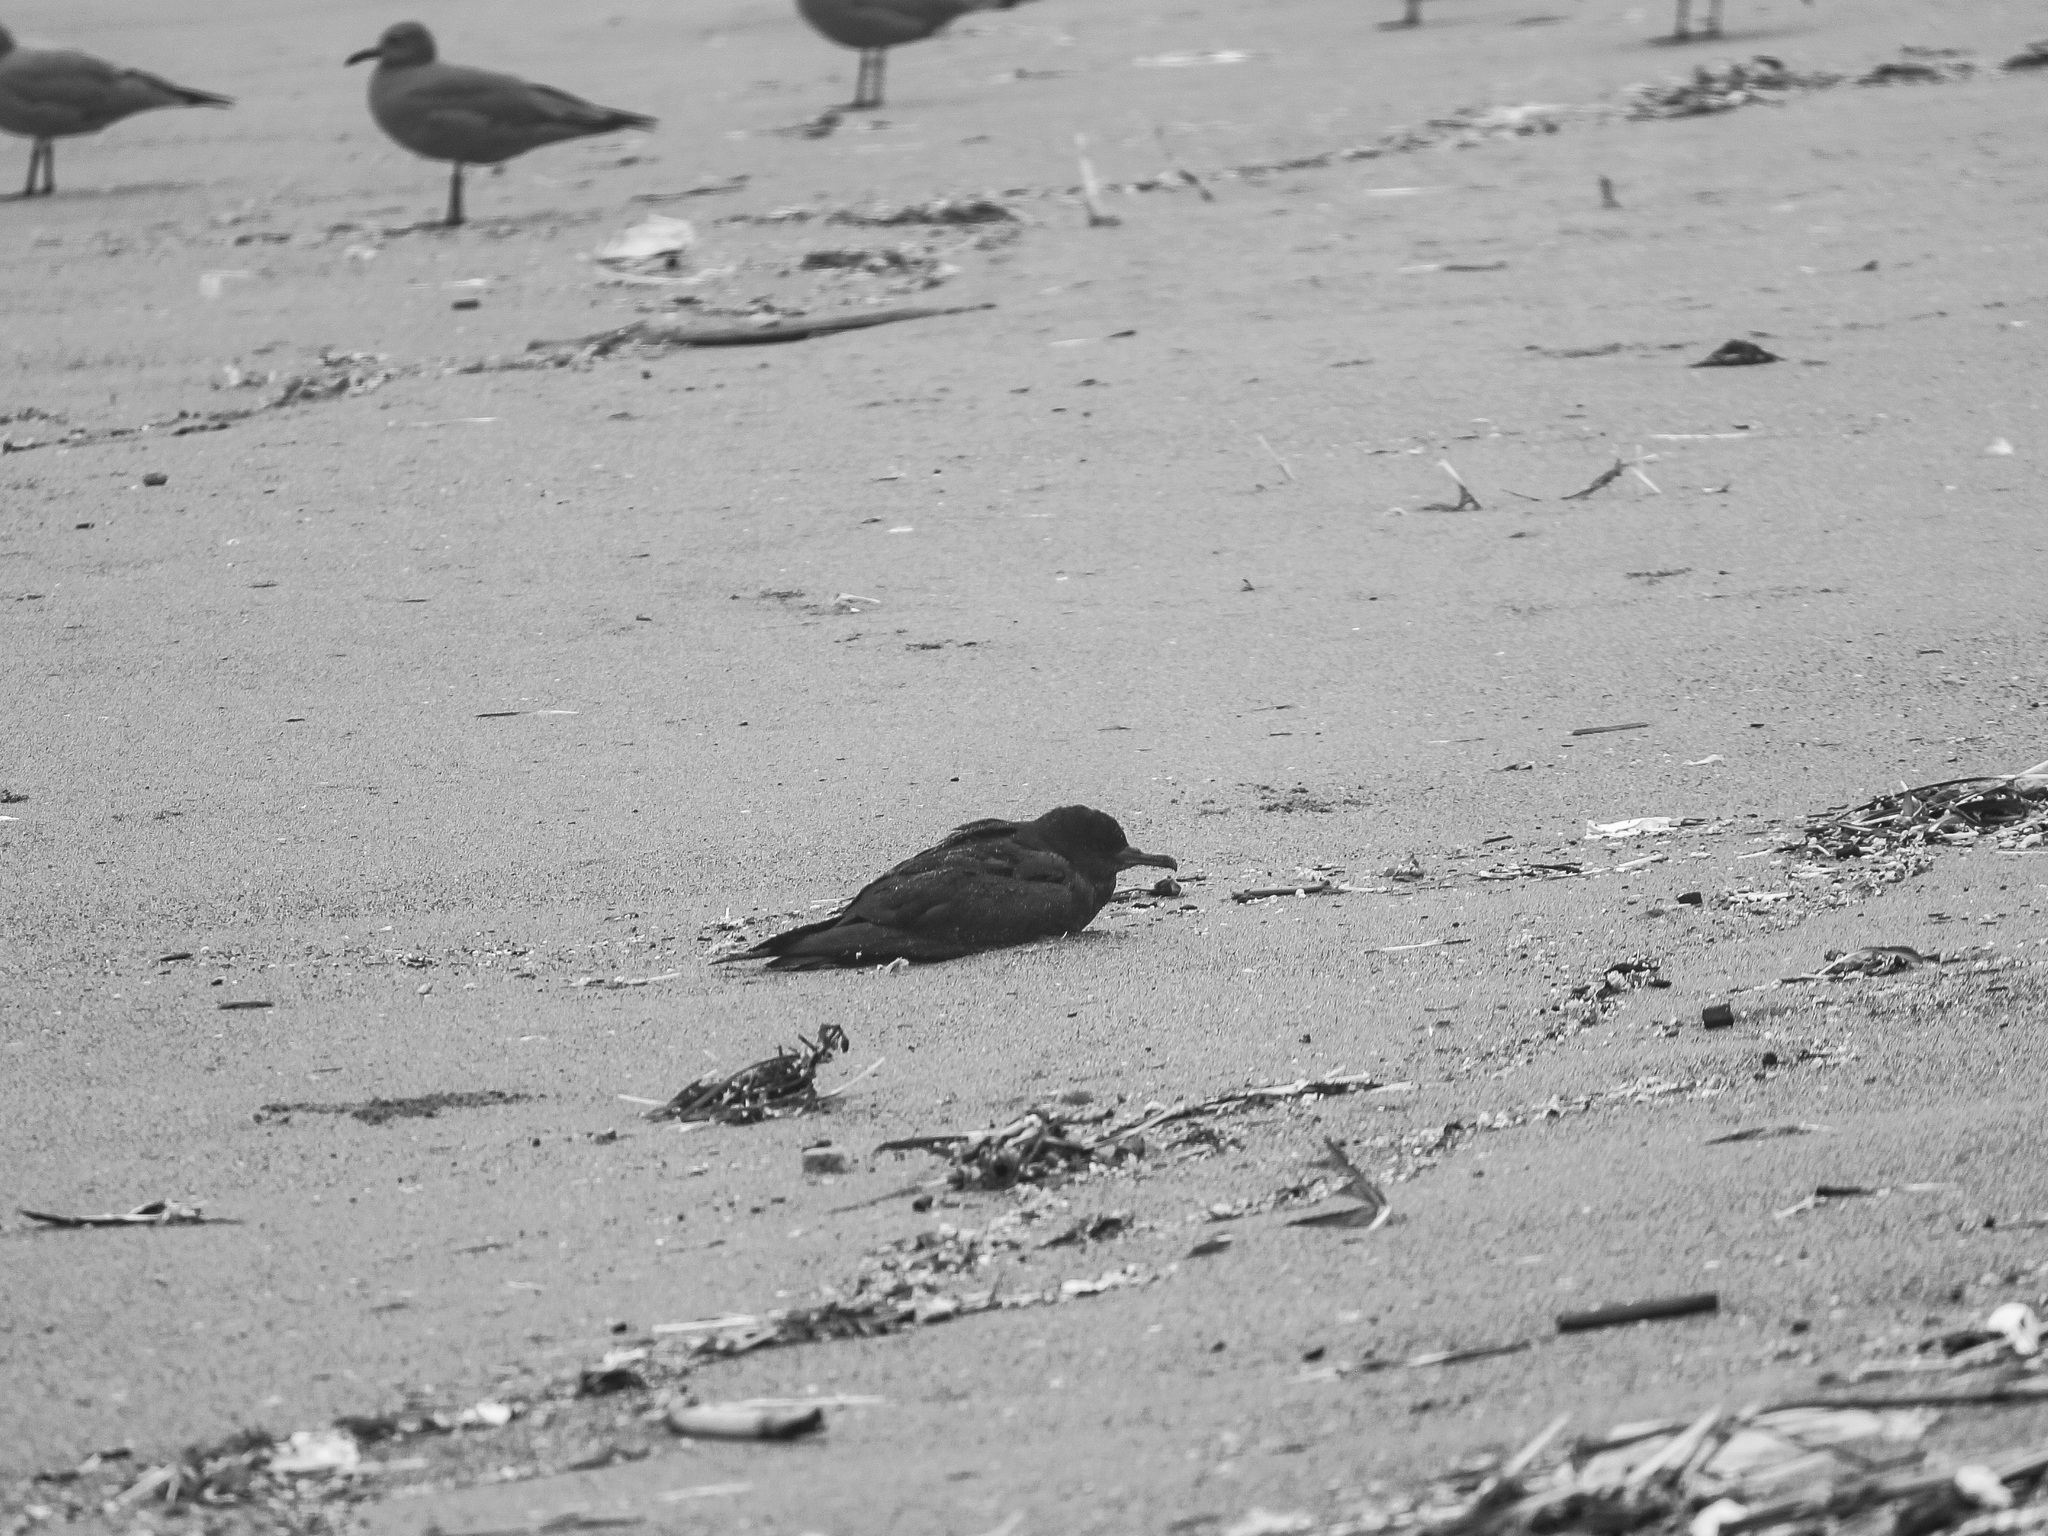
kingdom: Animalia
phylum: Chordata
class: Aves
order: Procellariiformes
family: Procellariidae
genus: Puffinus
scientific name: Puffinus griseus
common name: Sooty shearwater
